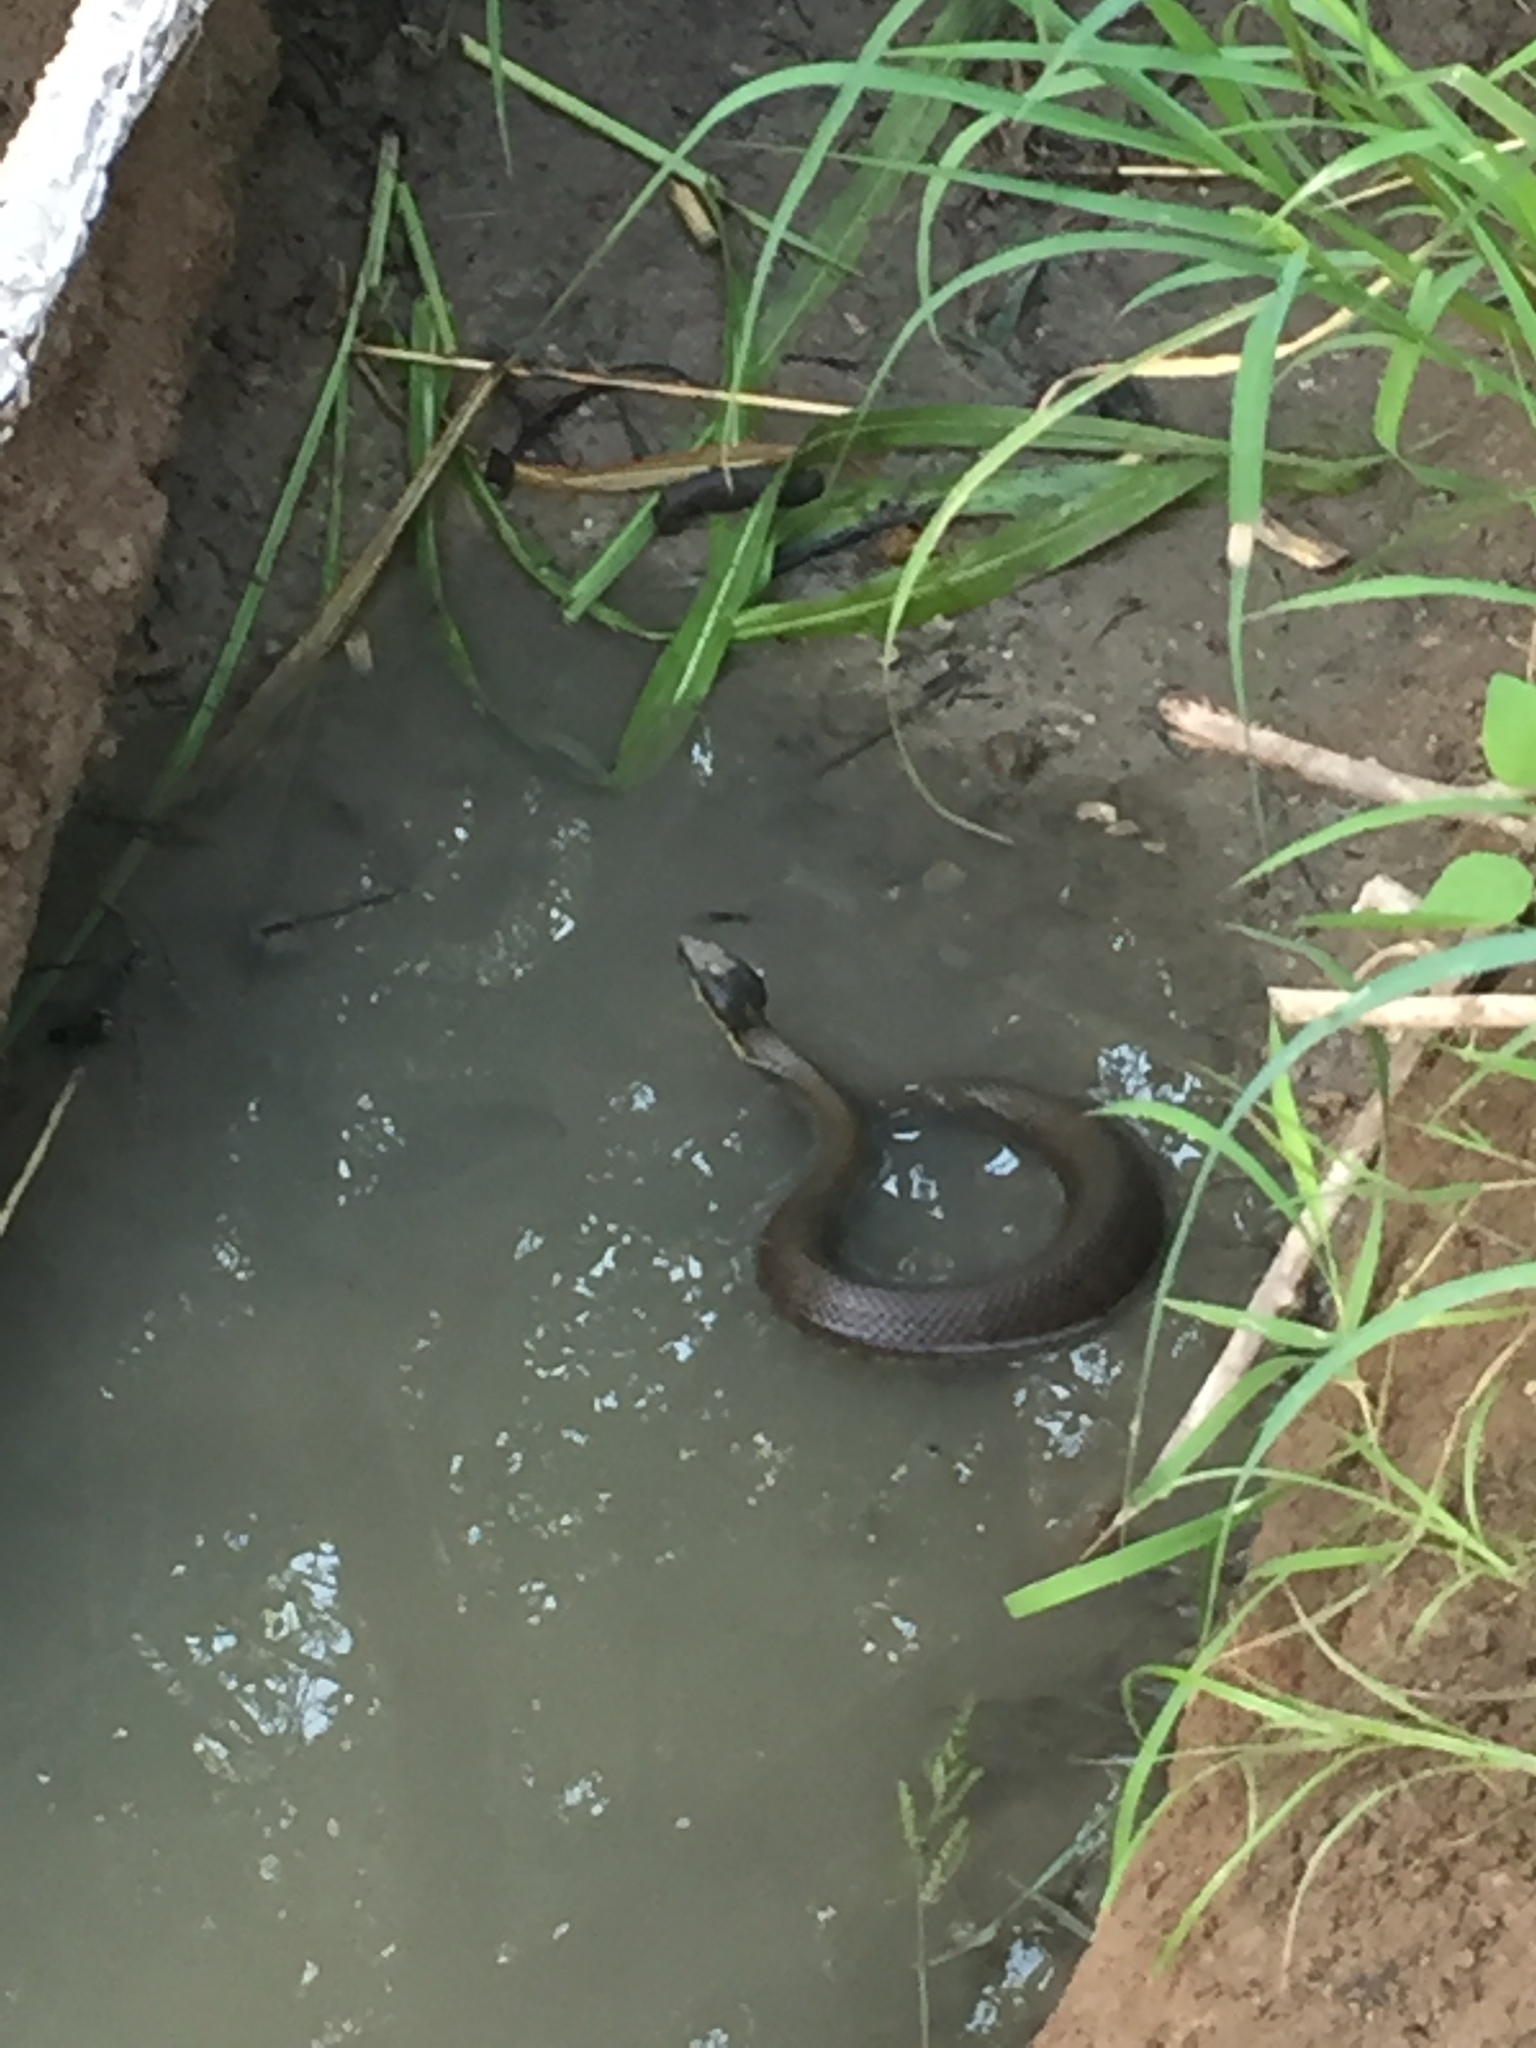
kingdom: Animalia
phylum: Chordata
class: Squamata
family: Viperidae
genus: Agkistrodon
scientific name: Agkistrodon piscivorus
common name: Cottonmouth
